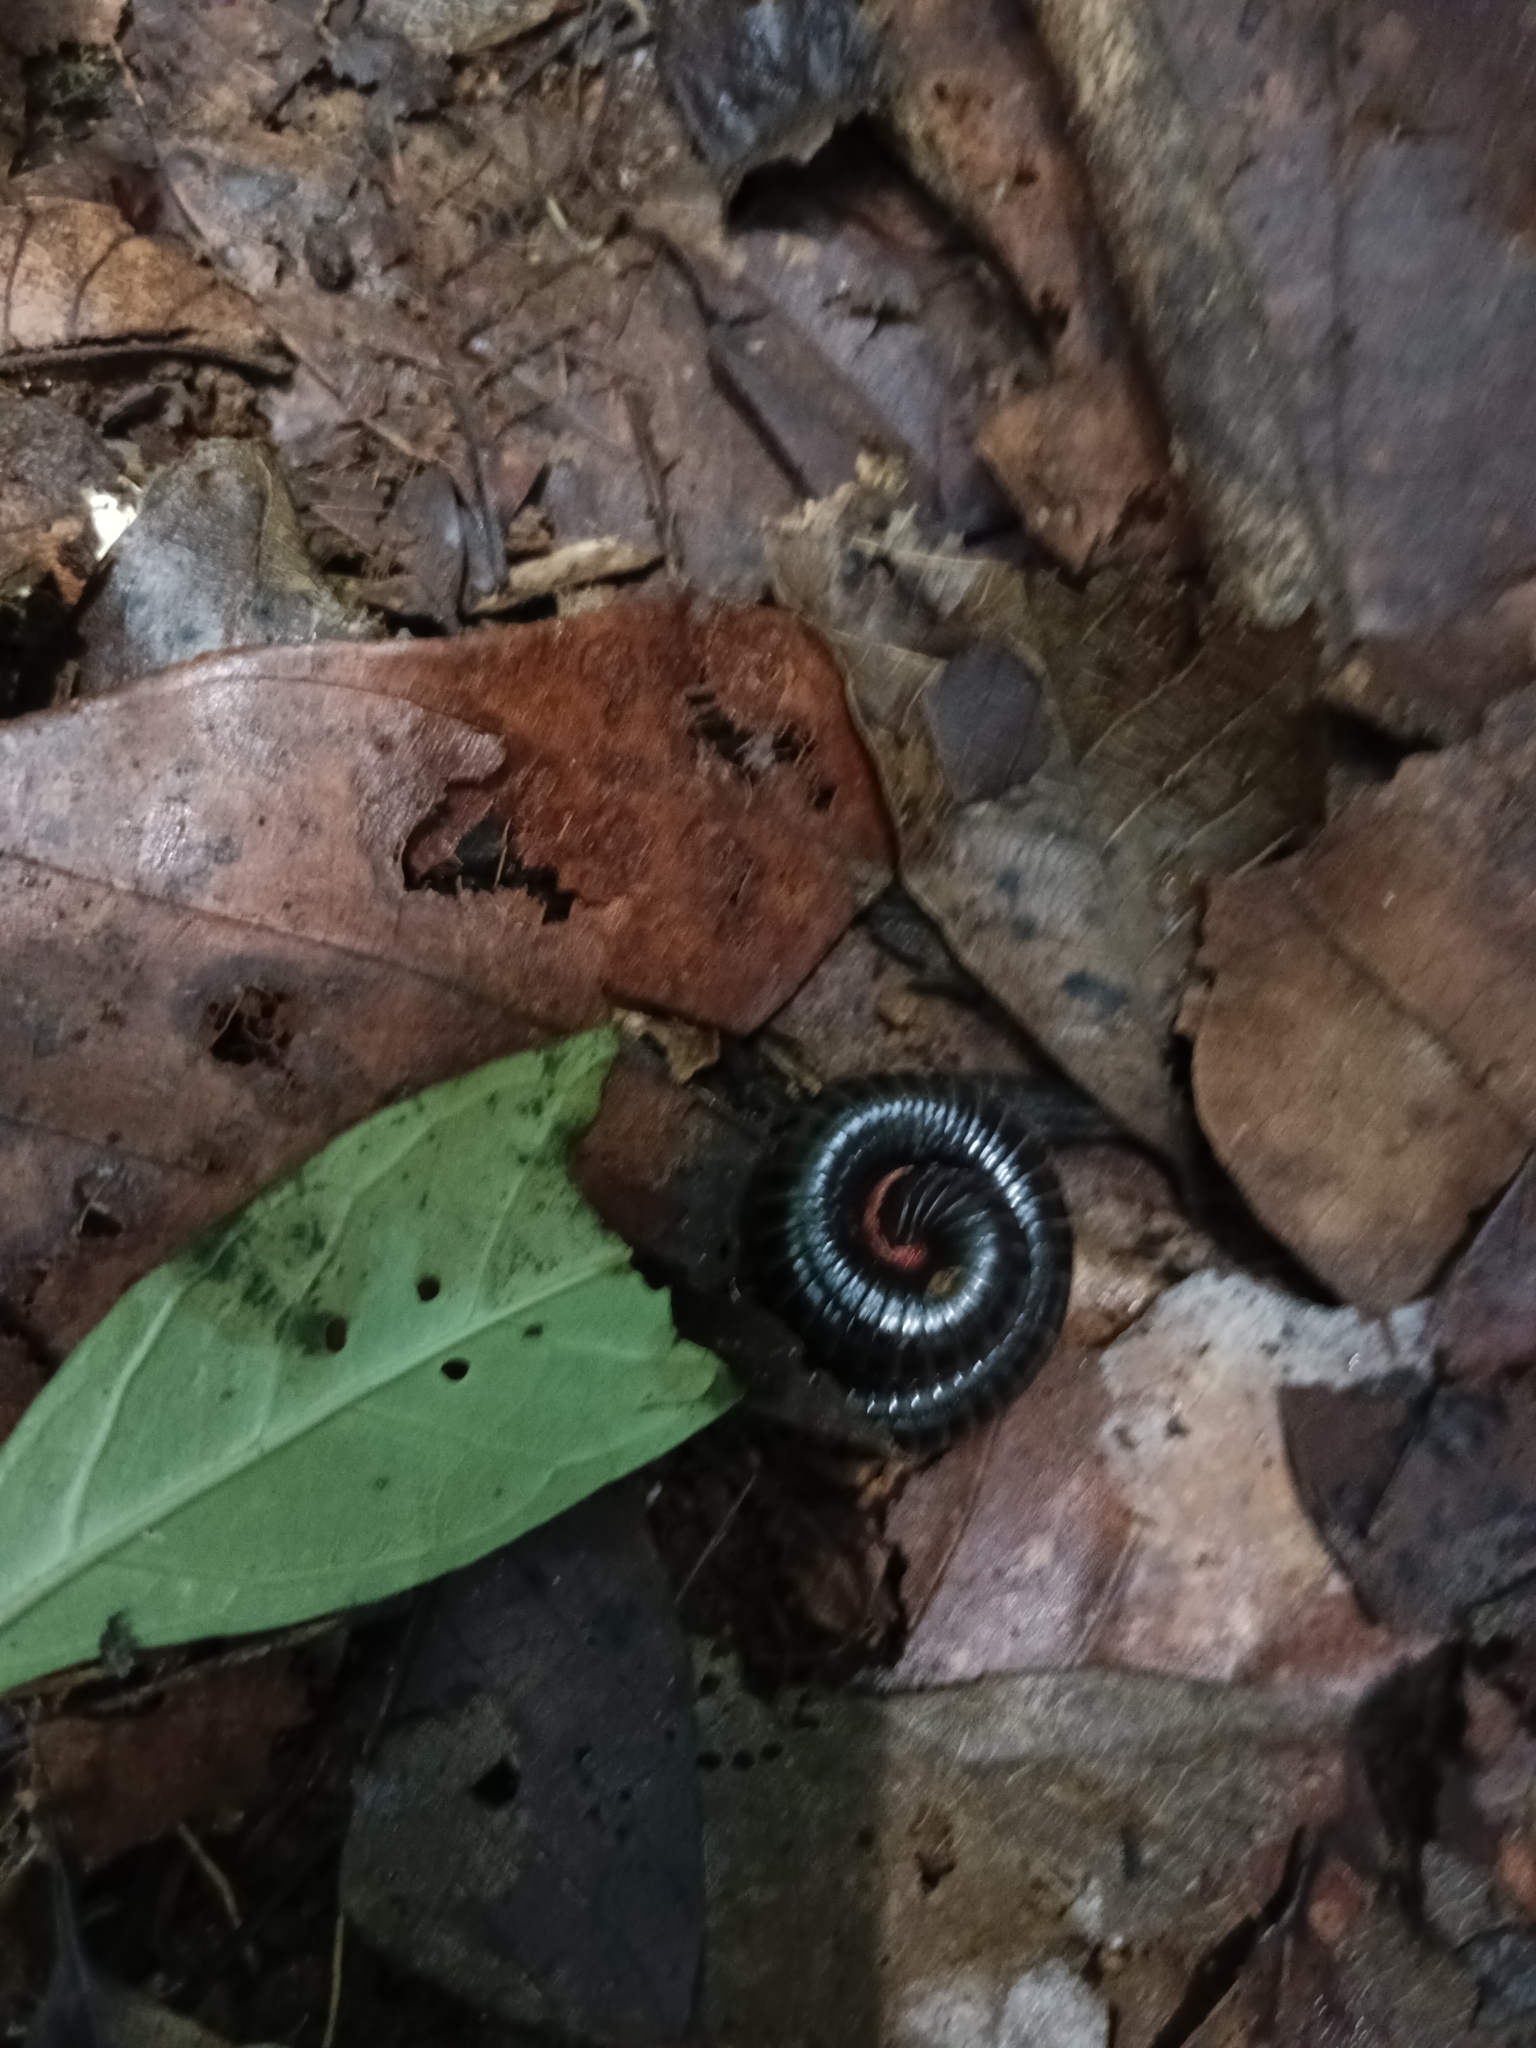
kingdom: Animalia
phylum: Arthropoda
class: Diplopoda
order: Spirostreptida
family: Harpagophoridae
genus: Phyllogonostreptus
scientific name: Phyllogonostreptus nigrolabiatus
